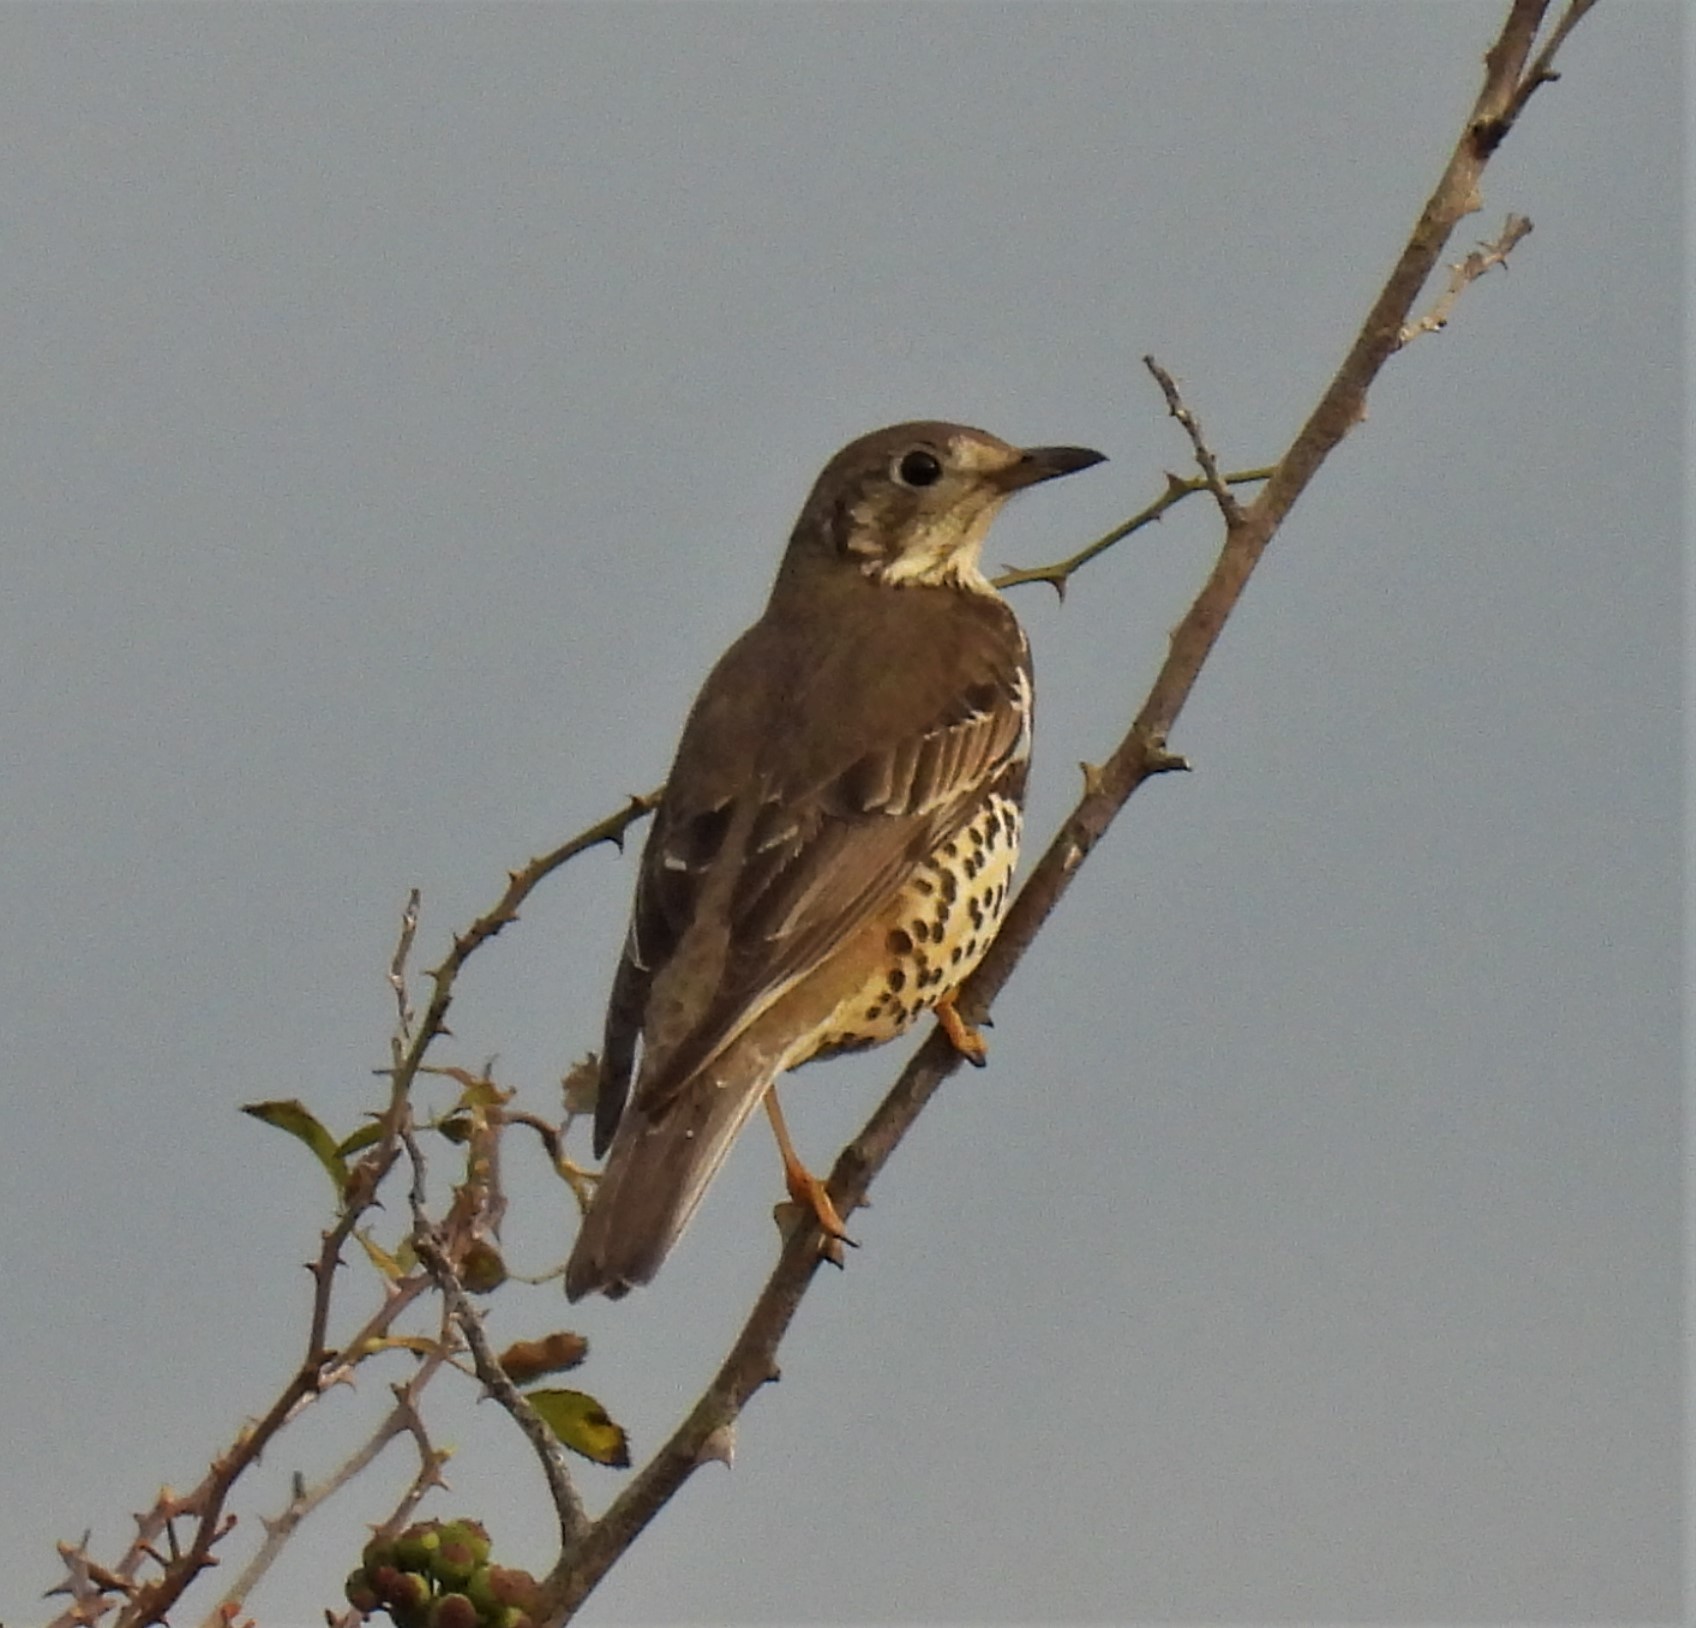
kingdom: Animalia
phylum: Chordata
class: Aves
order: Passeriformes
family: Turdidae
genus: Turdus
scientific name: Turdus viscivorus
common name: Mistle thrush
